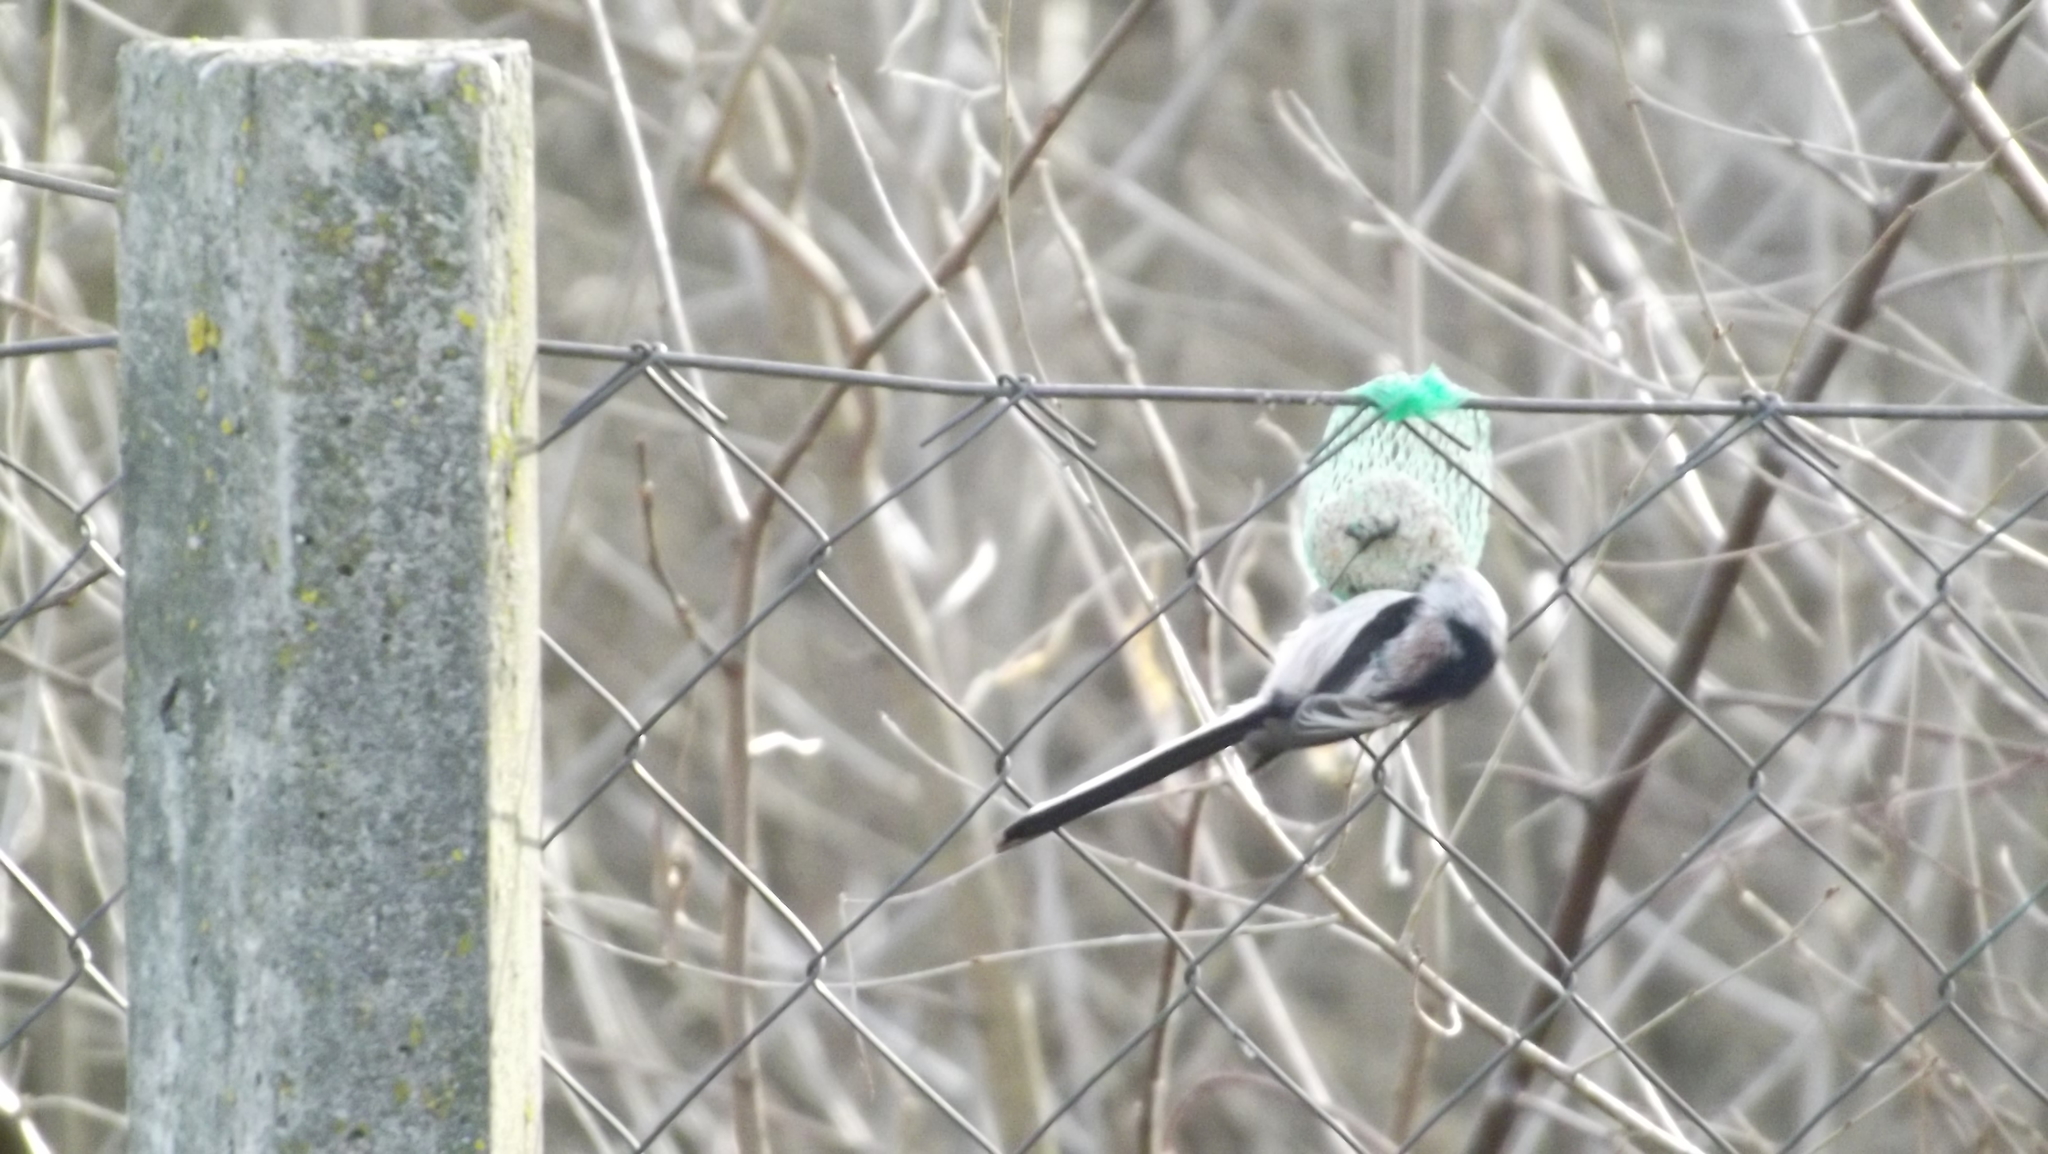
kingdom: Animalia
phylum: Chordata
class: Aves
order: Passeriformes
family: Aegithalidae
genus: Aegithalos
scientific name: Aegithalos caudatus
